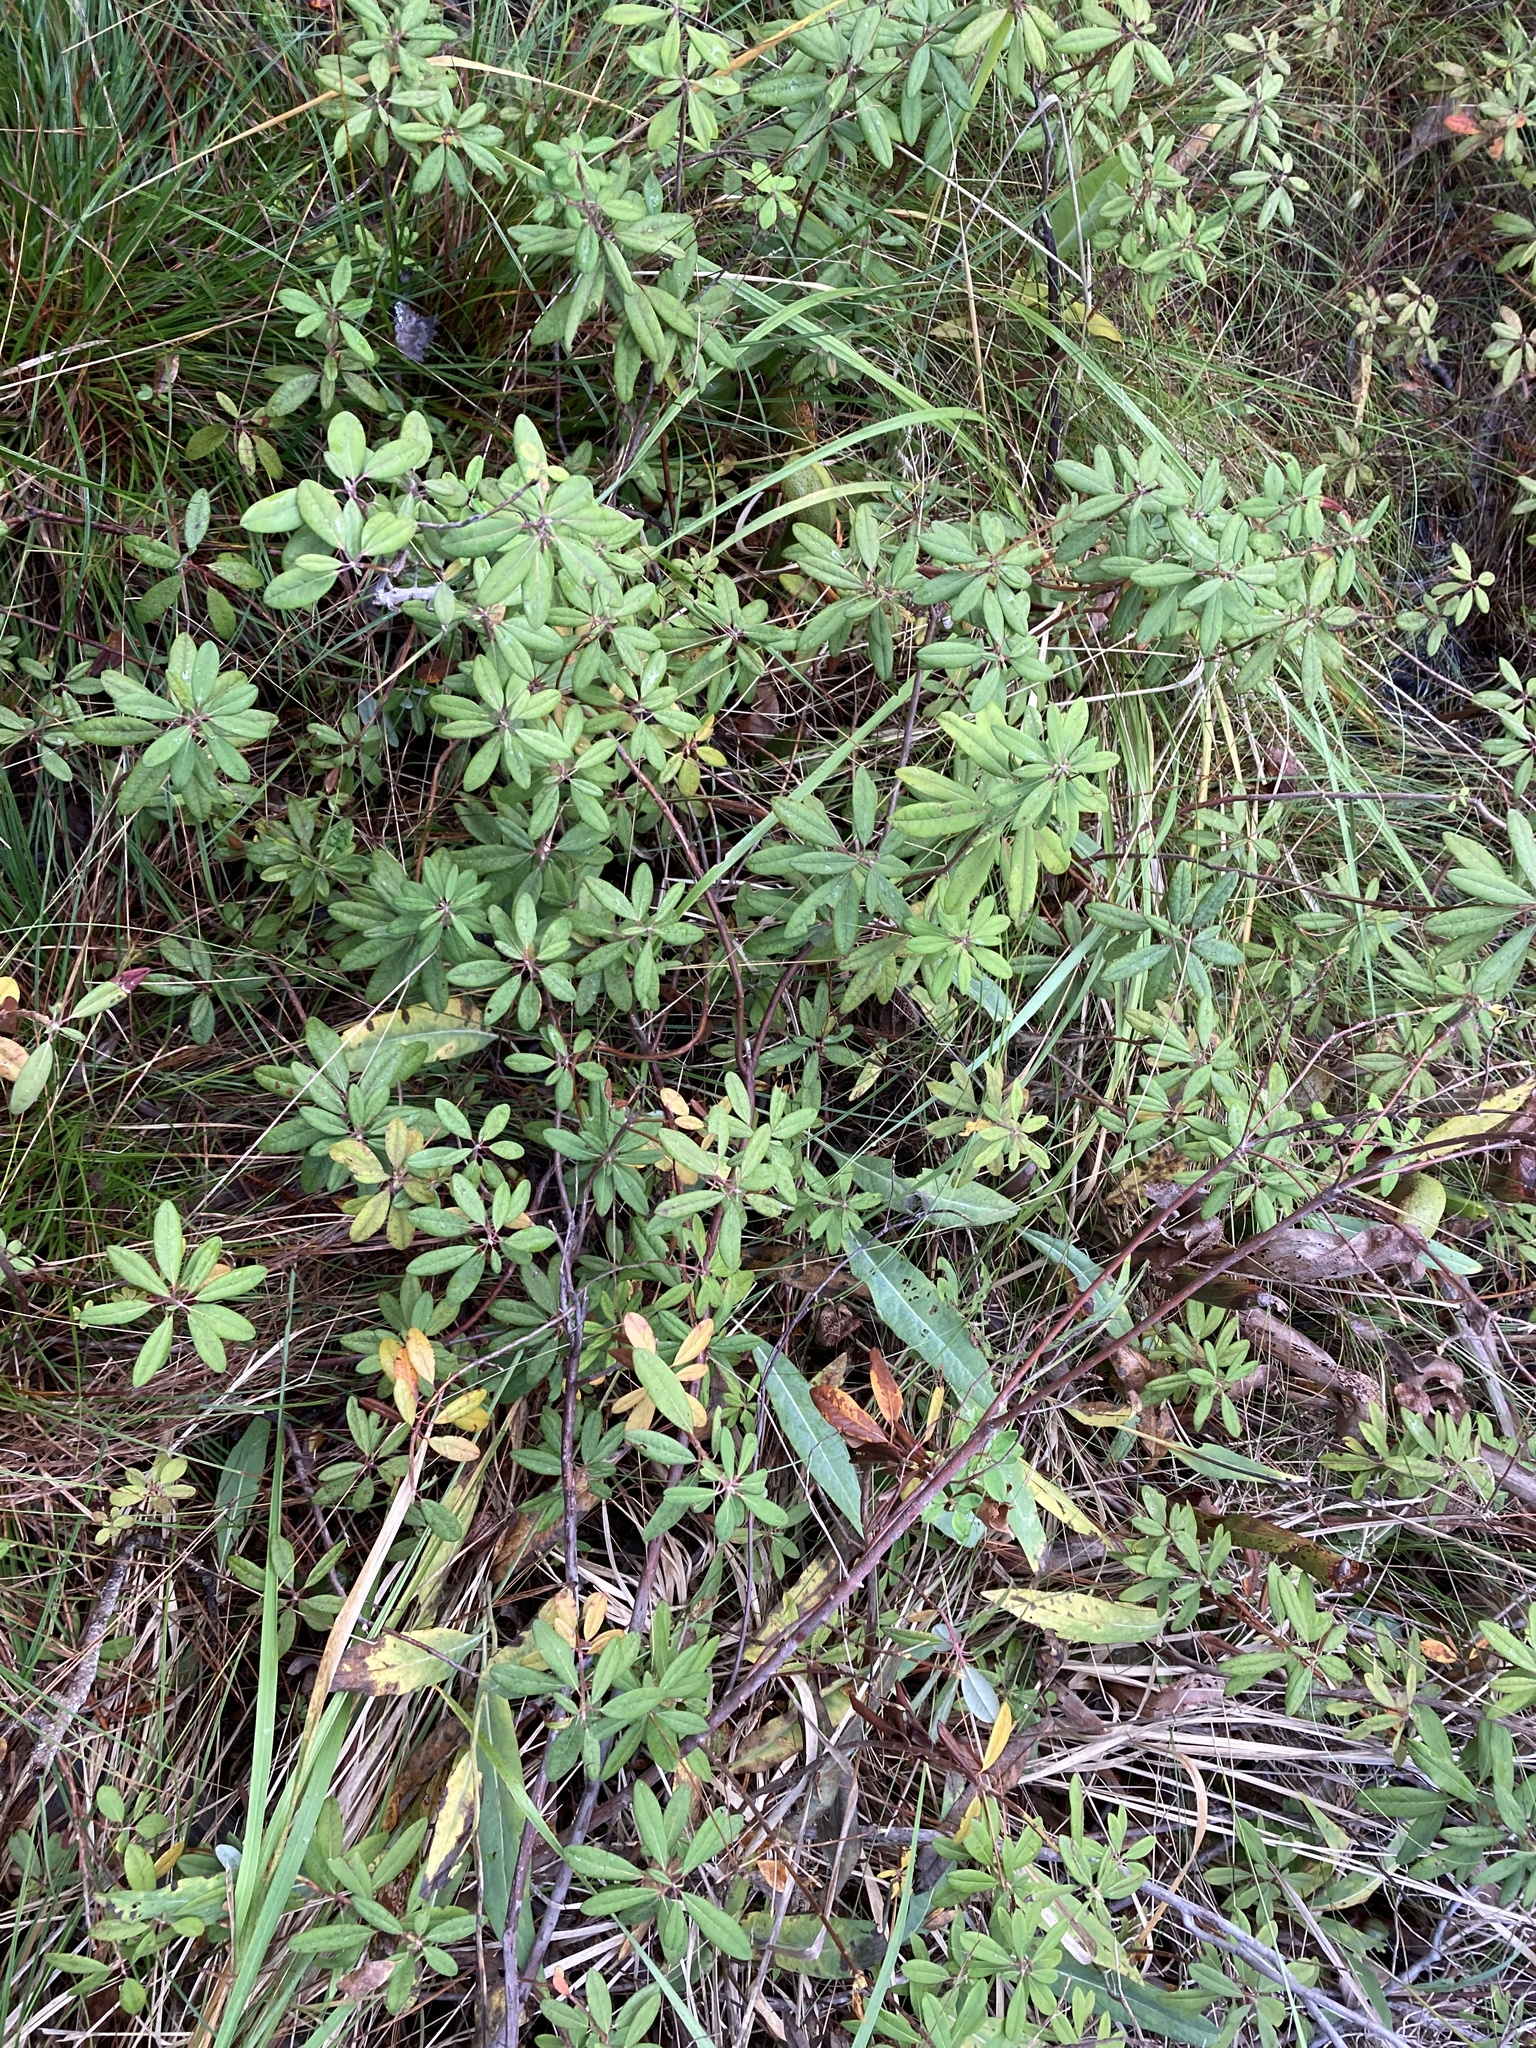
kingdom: Plantae
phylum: Tracheophyta
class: Magnoliopsida
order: Ericales
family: Ericaceae
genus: Rhododendron
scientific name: Rhododendron columbianum
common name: Western labrador tea
